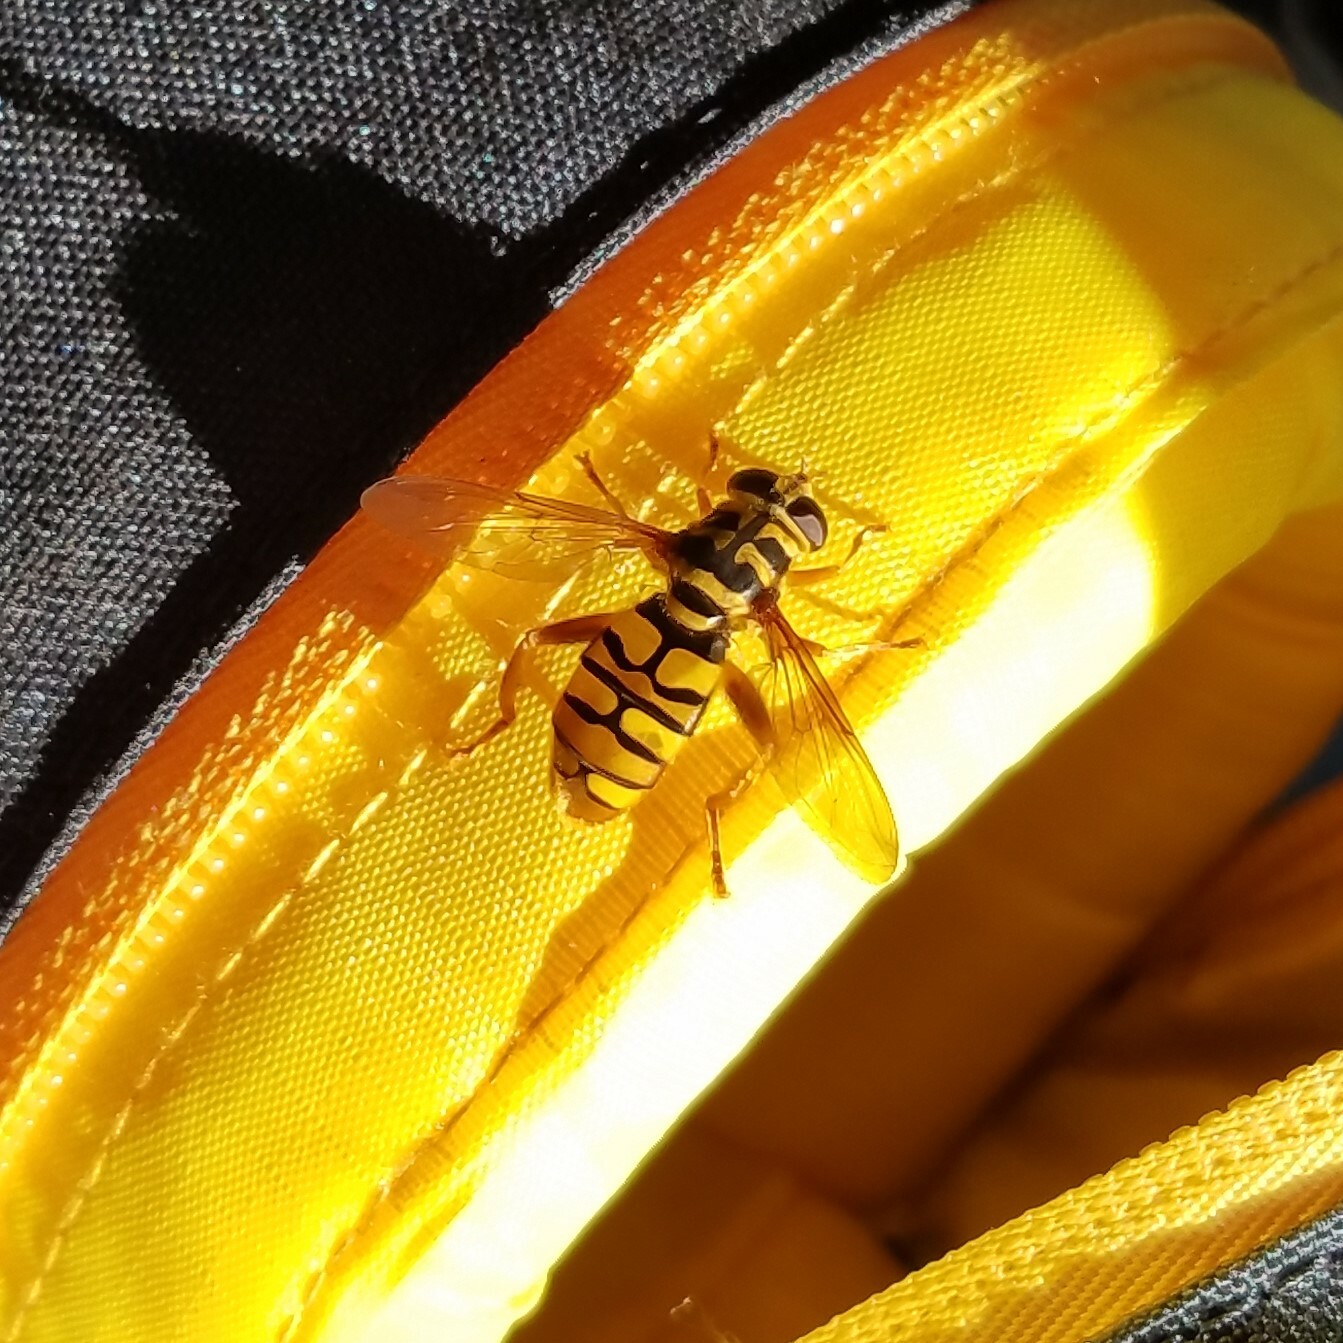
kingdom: Animalia
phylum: Arthropoda
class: Insecta
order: Diptera
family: Syrphidae
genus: Milesia
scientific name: Milesia virginiensis
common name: Virginia giant
